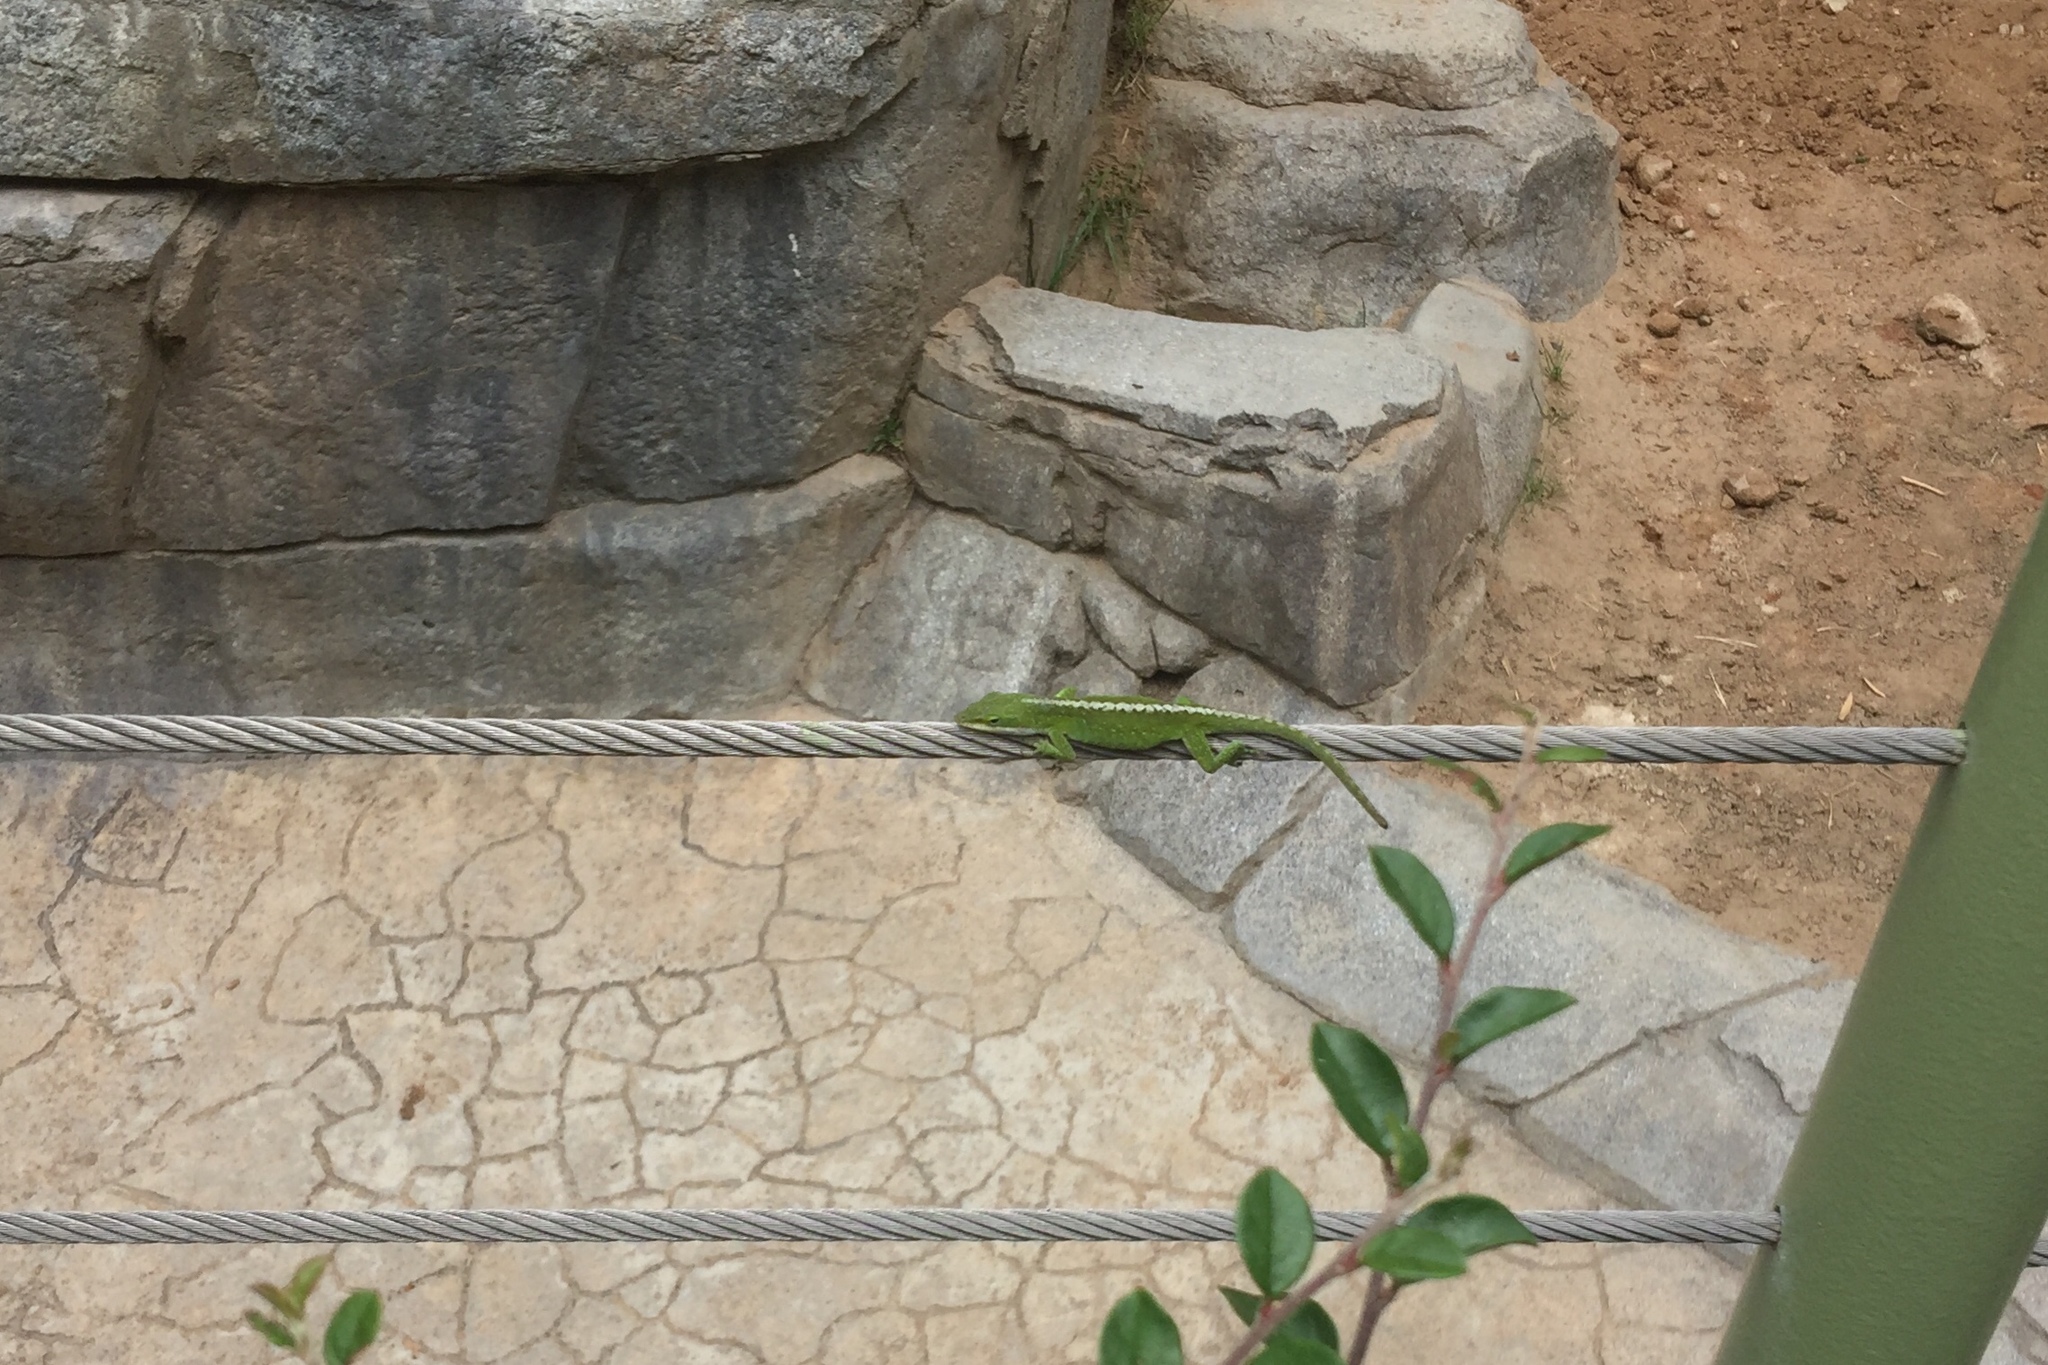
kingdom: Animalia
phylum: Chordata
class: Squamata
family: Dactyloidae
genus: Anolis
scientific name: Anolis carolinensis
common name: Green anole
